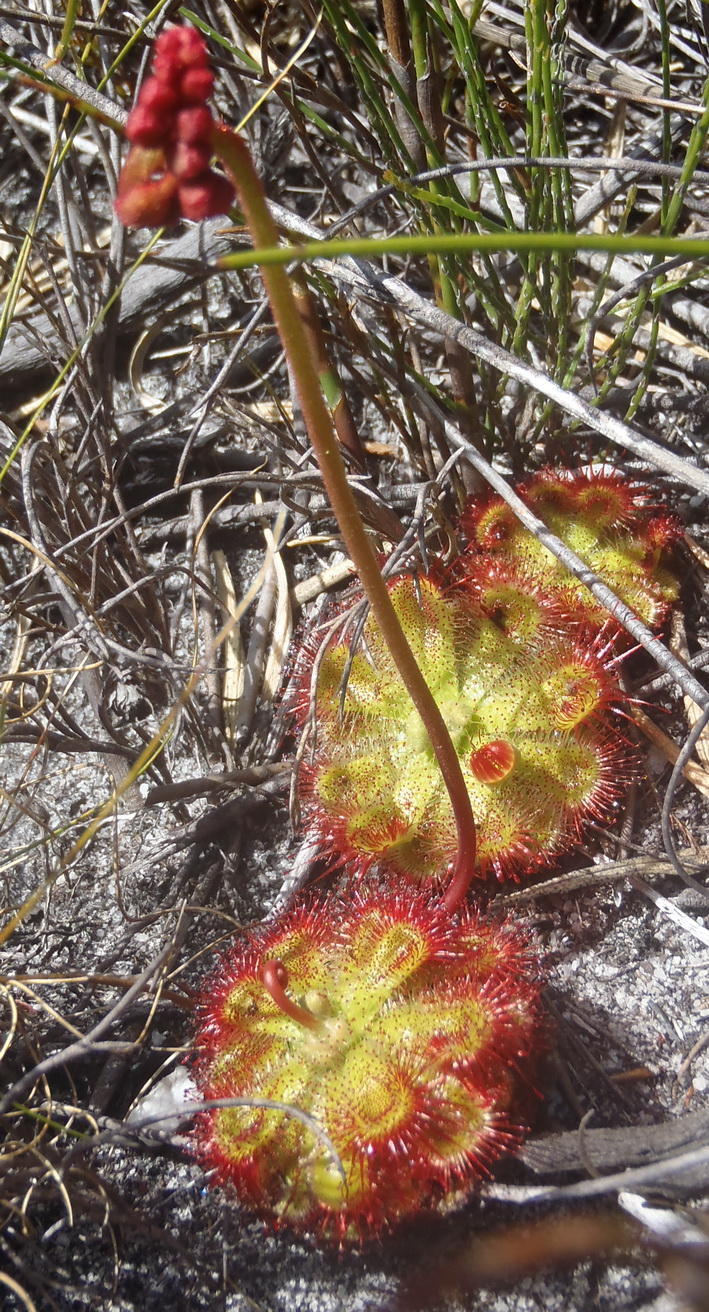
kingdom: Plantae
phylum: Tracheophyta
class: Magnoliopsida
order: Caryophyllales
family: Droseraceae
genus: Drosera
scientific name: Drosera xerophila
